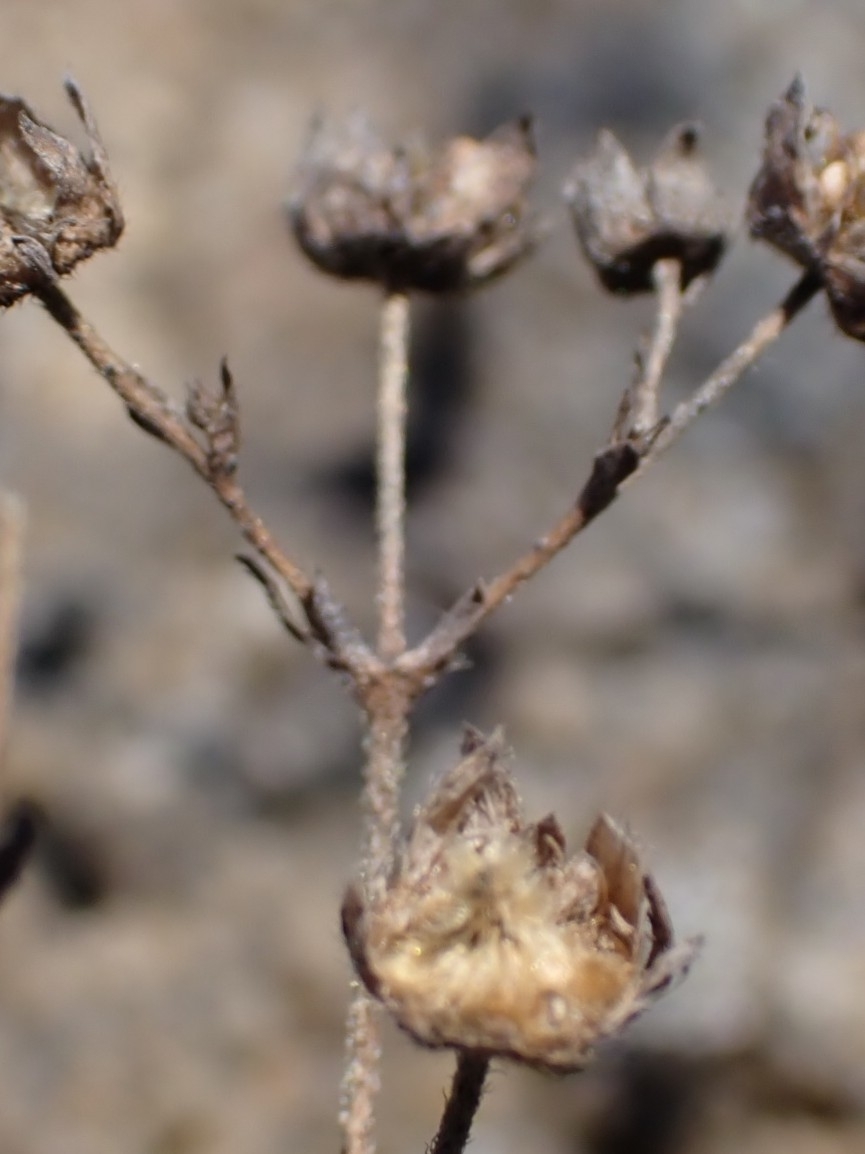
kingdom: Plantae
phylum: Tracheophyta
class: Magnoliopsida
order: Rosales
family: Rosaceae
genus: Sibbaldia
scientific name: Sibbaldia tridentata
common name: Three-toothed cinquefoil
